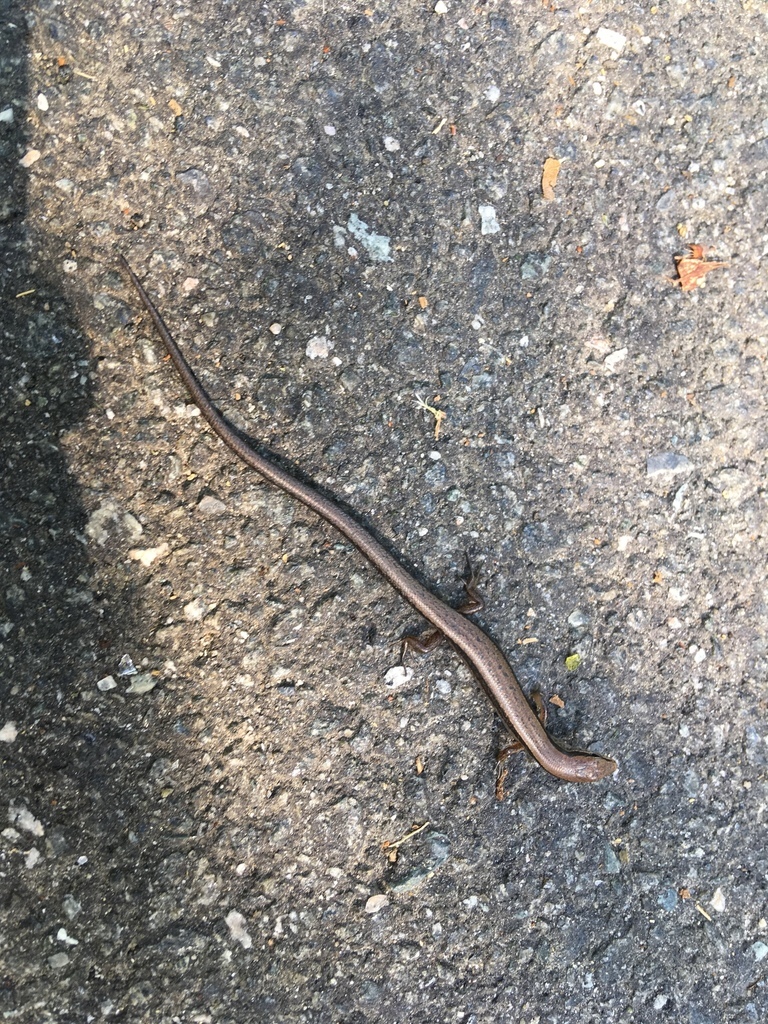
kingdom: Animalia
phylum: Chordata
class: Squamata
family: Scincidae
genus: Scincella
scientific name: Scincella lateralis
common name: Ground skink
